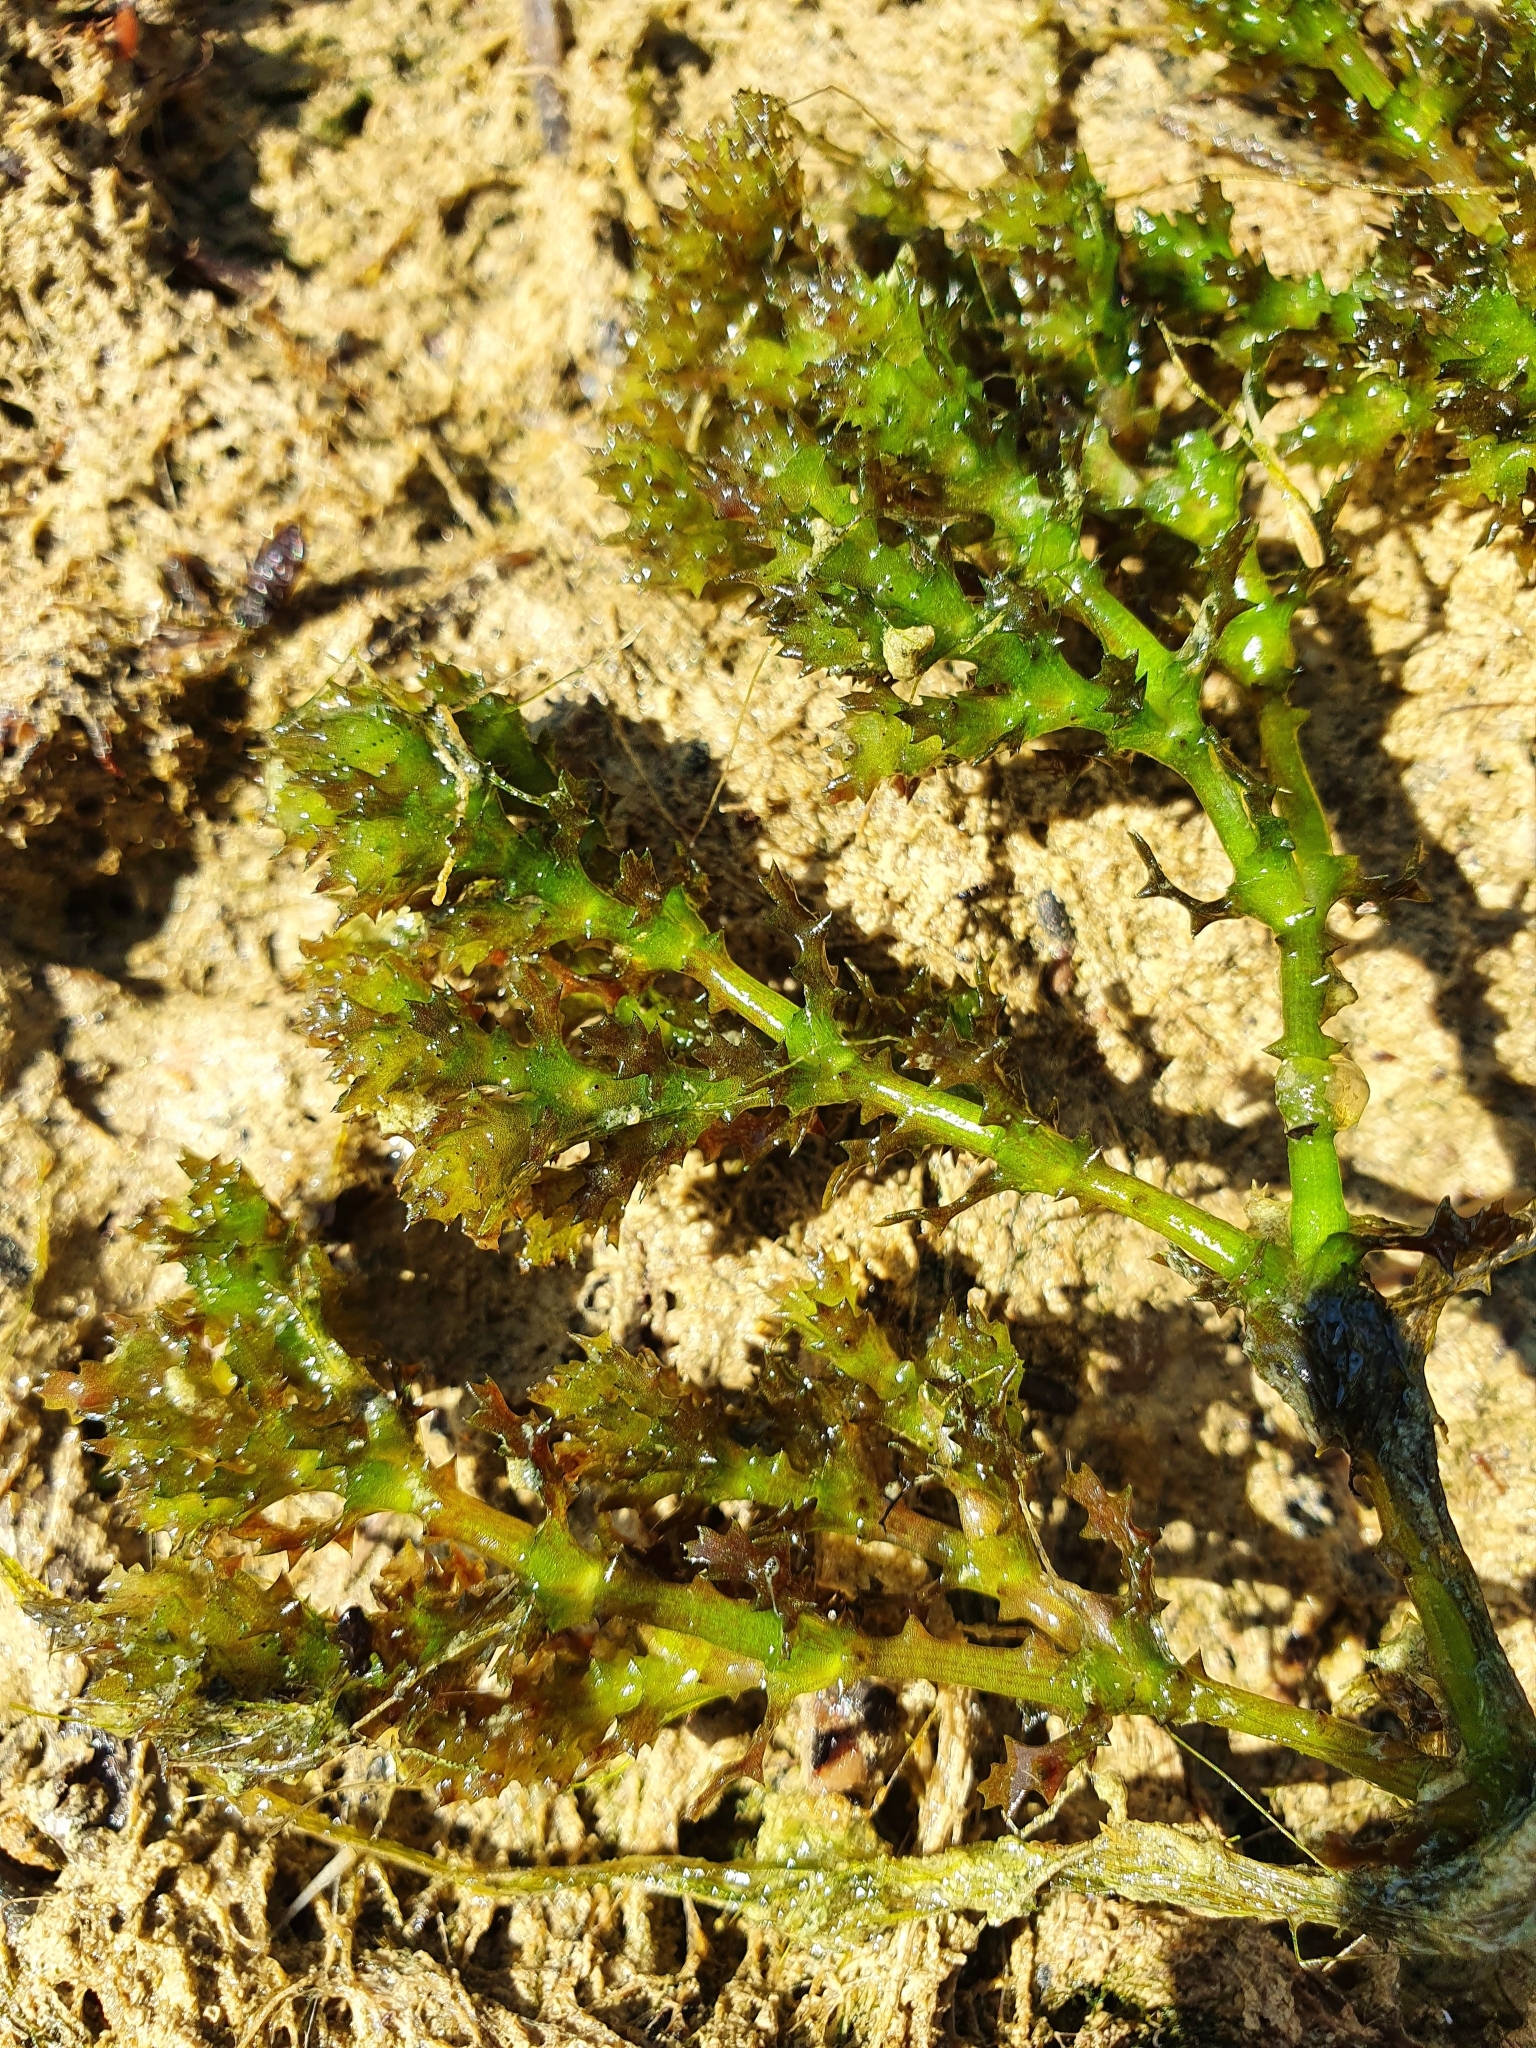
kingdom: Plantae
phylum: Tracheophyta
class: Liliopsida
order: Alismatales
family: Hydrocharitaceae
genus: Najas
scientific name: Najas marina
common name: Holly-leaved naiad
